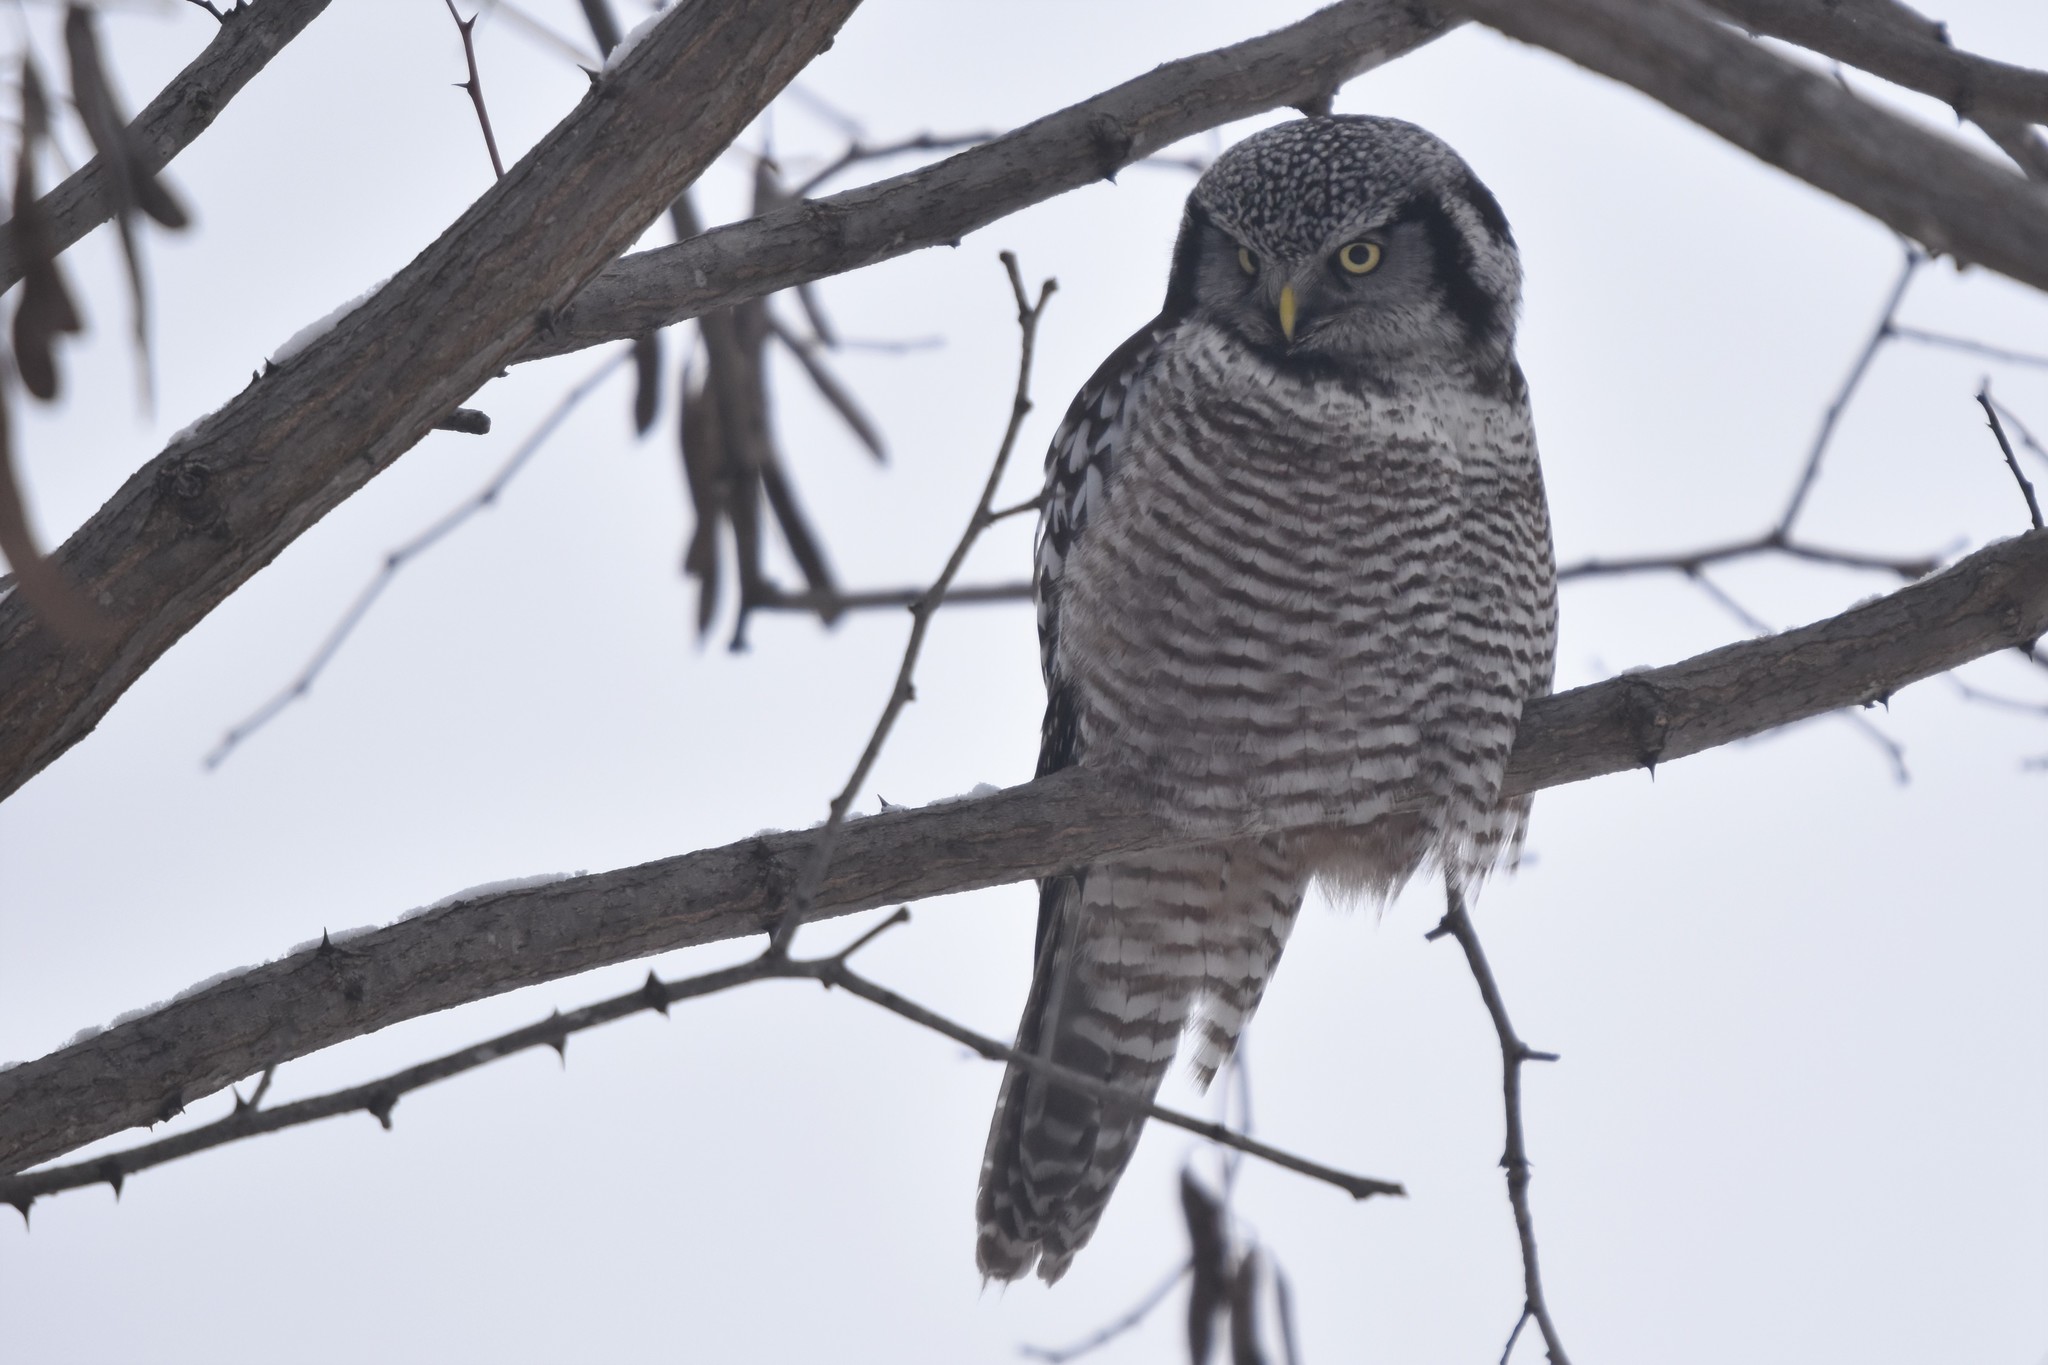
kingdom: Animalia
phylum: Chordata
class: Aves
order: Strigiformes
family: Strigidae
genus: Surnia
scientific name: Surnia ulula
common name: Northern hawk-owl
